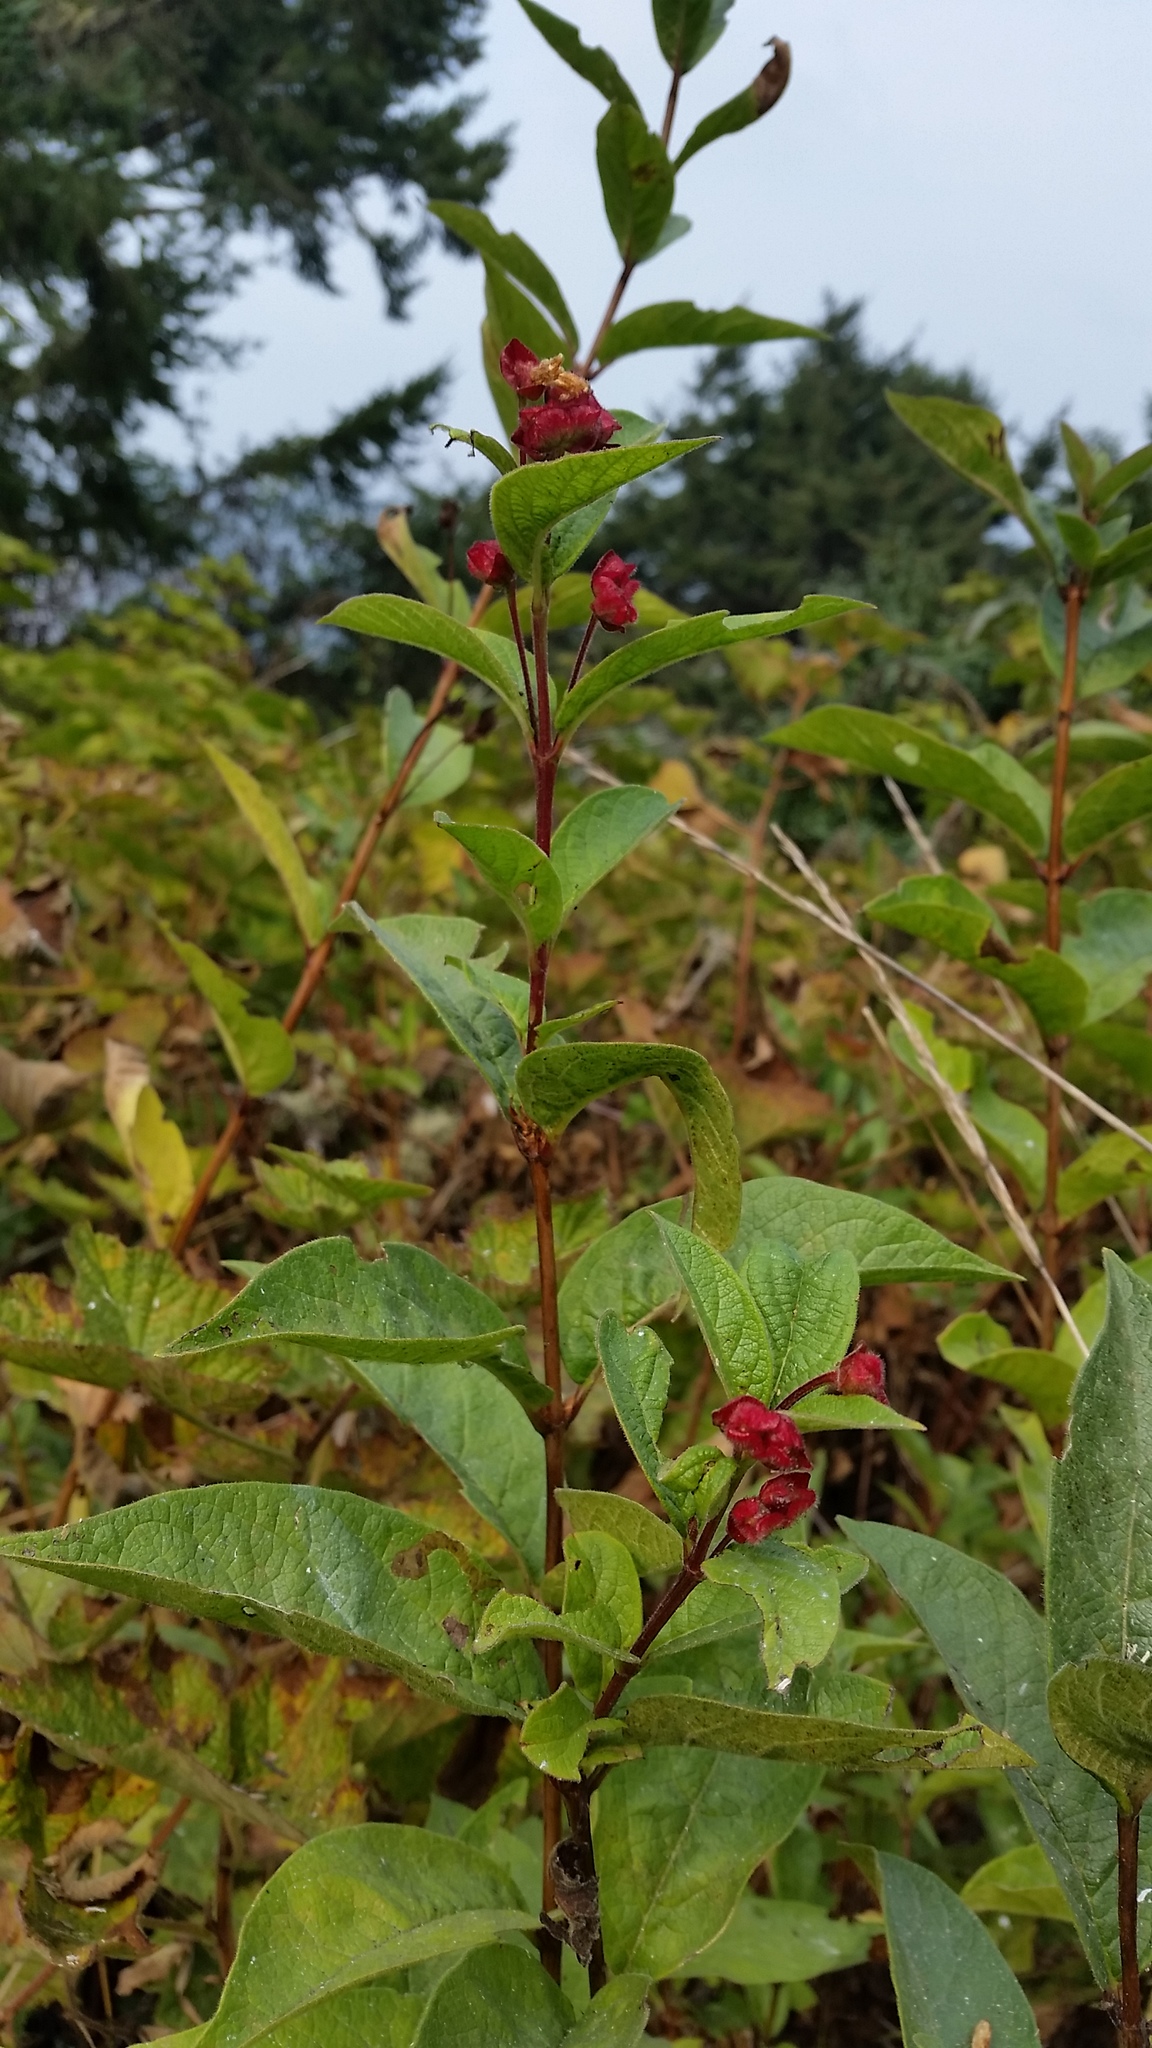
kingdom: Plantae
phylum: Tracheophyta
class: Magnoliopsida
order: Dipsacales
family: Caprifoliaceae
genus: Lonicera
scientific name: Lonicera involucrata
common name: Californian honeysuckle
